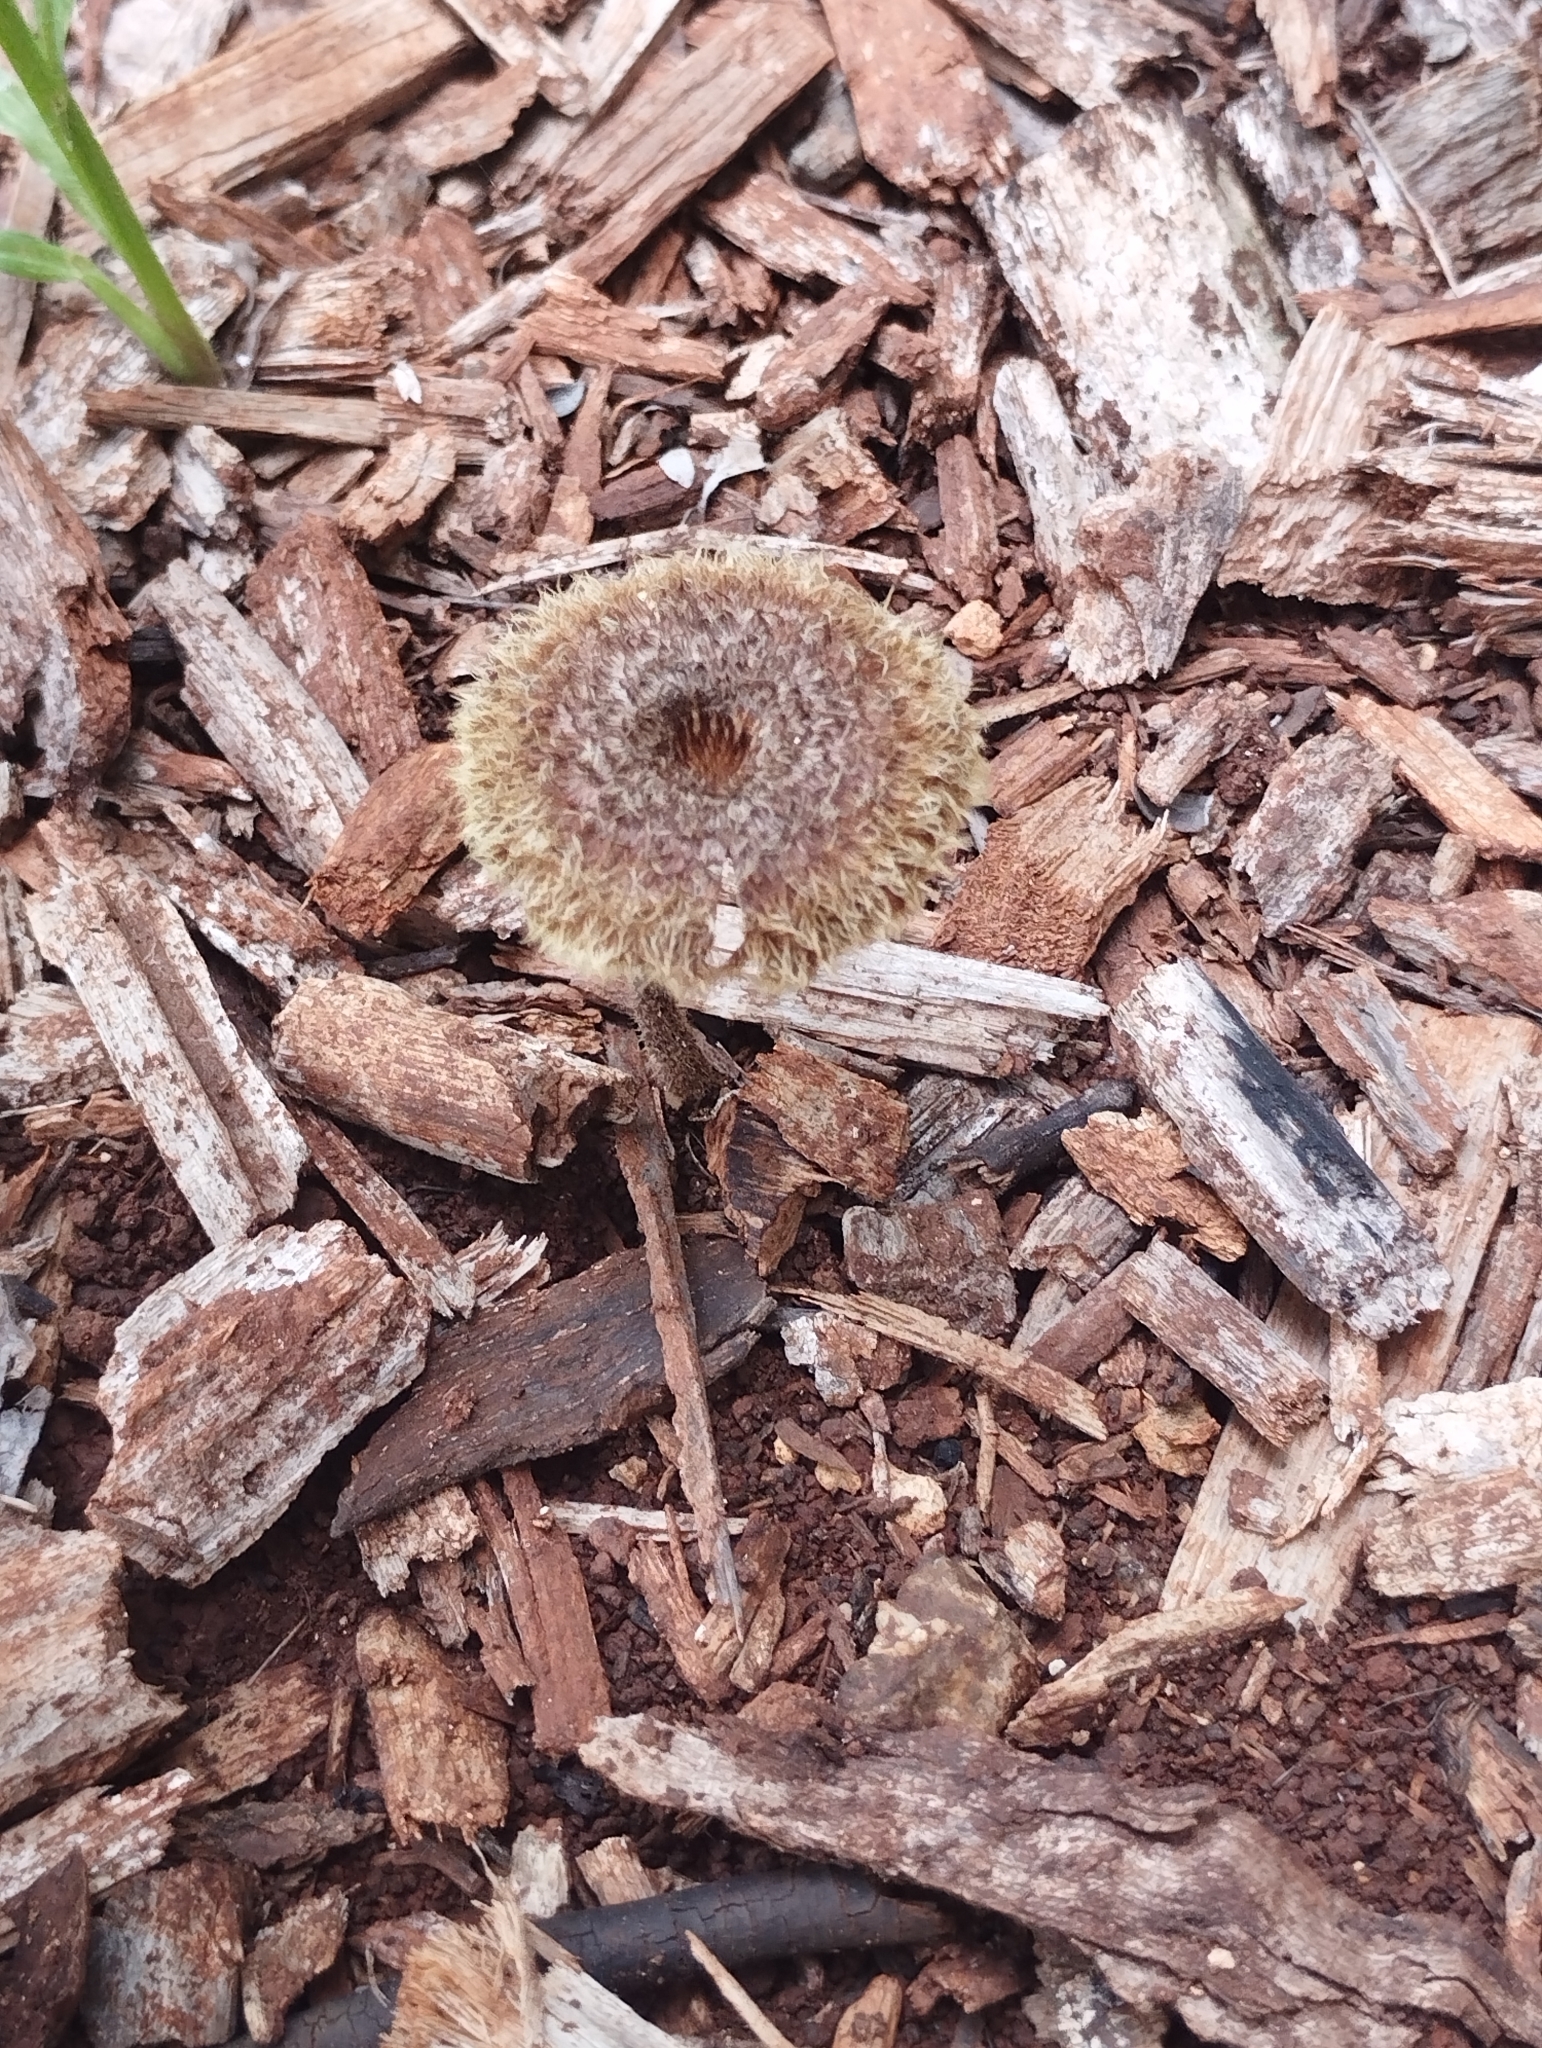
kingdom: Fungi
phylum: Basidiomycota
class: Agaricomycetes
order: Polyporales
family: Polyporaceae
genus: Lentinus
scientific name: Lentinus crinitus
